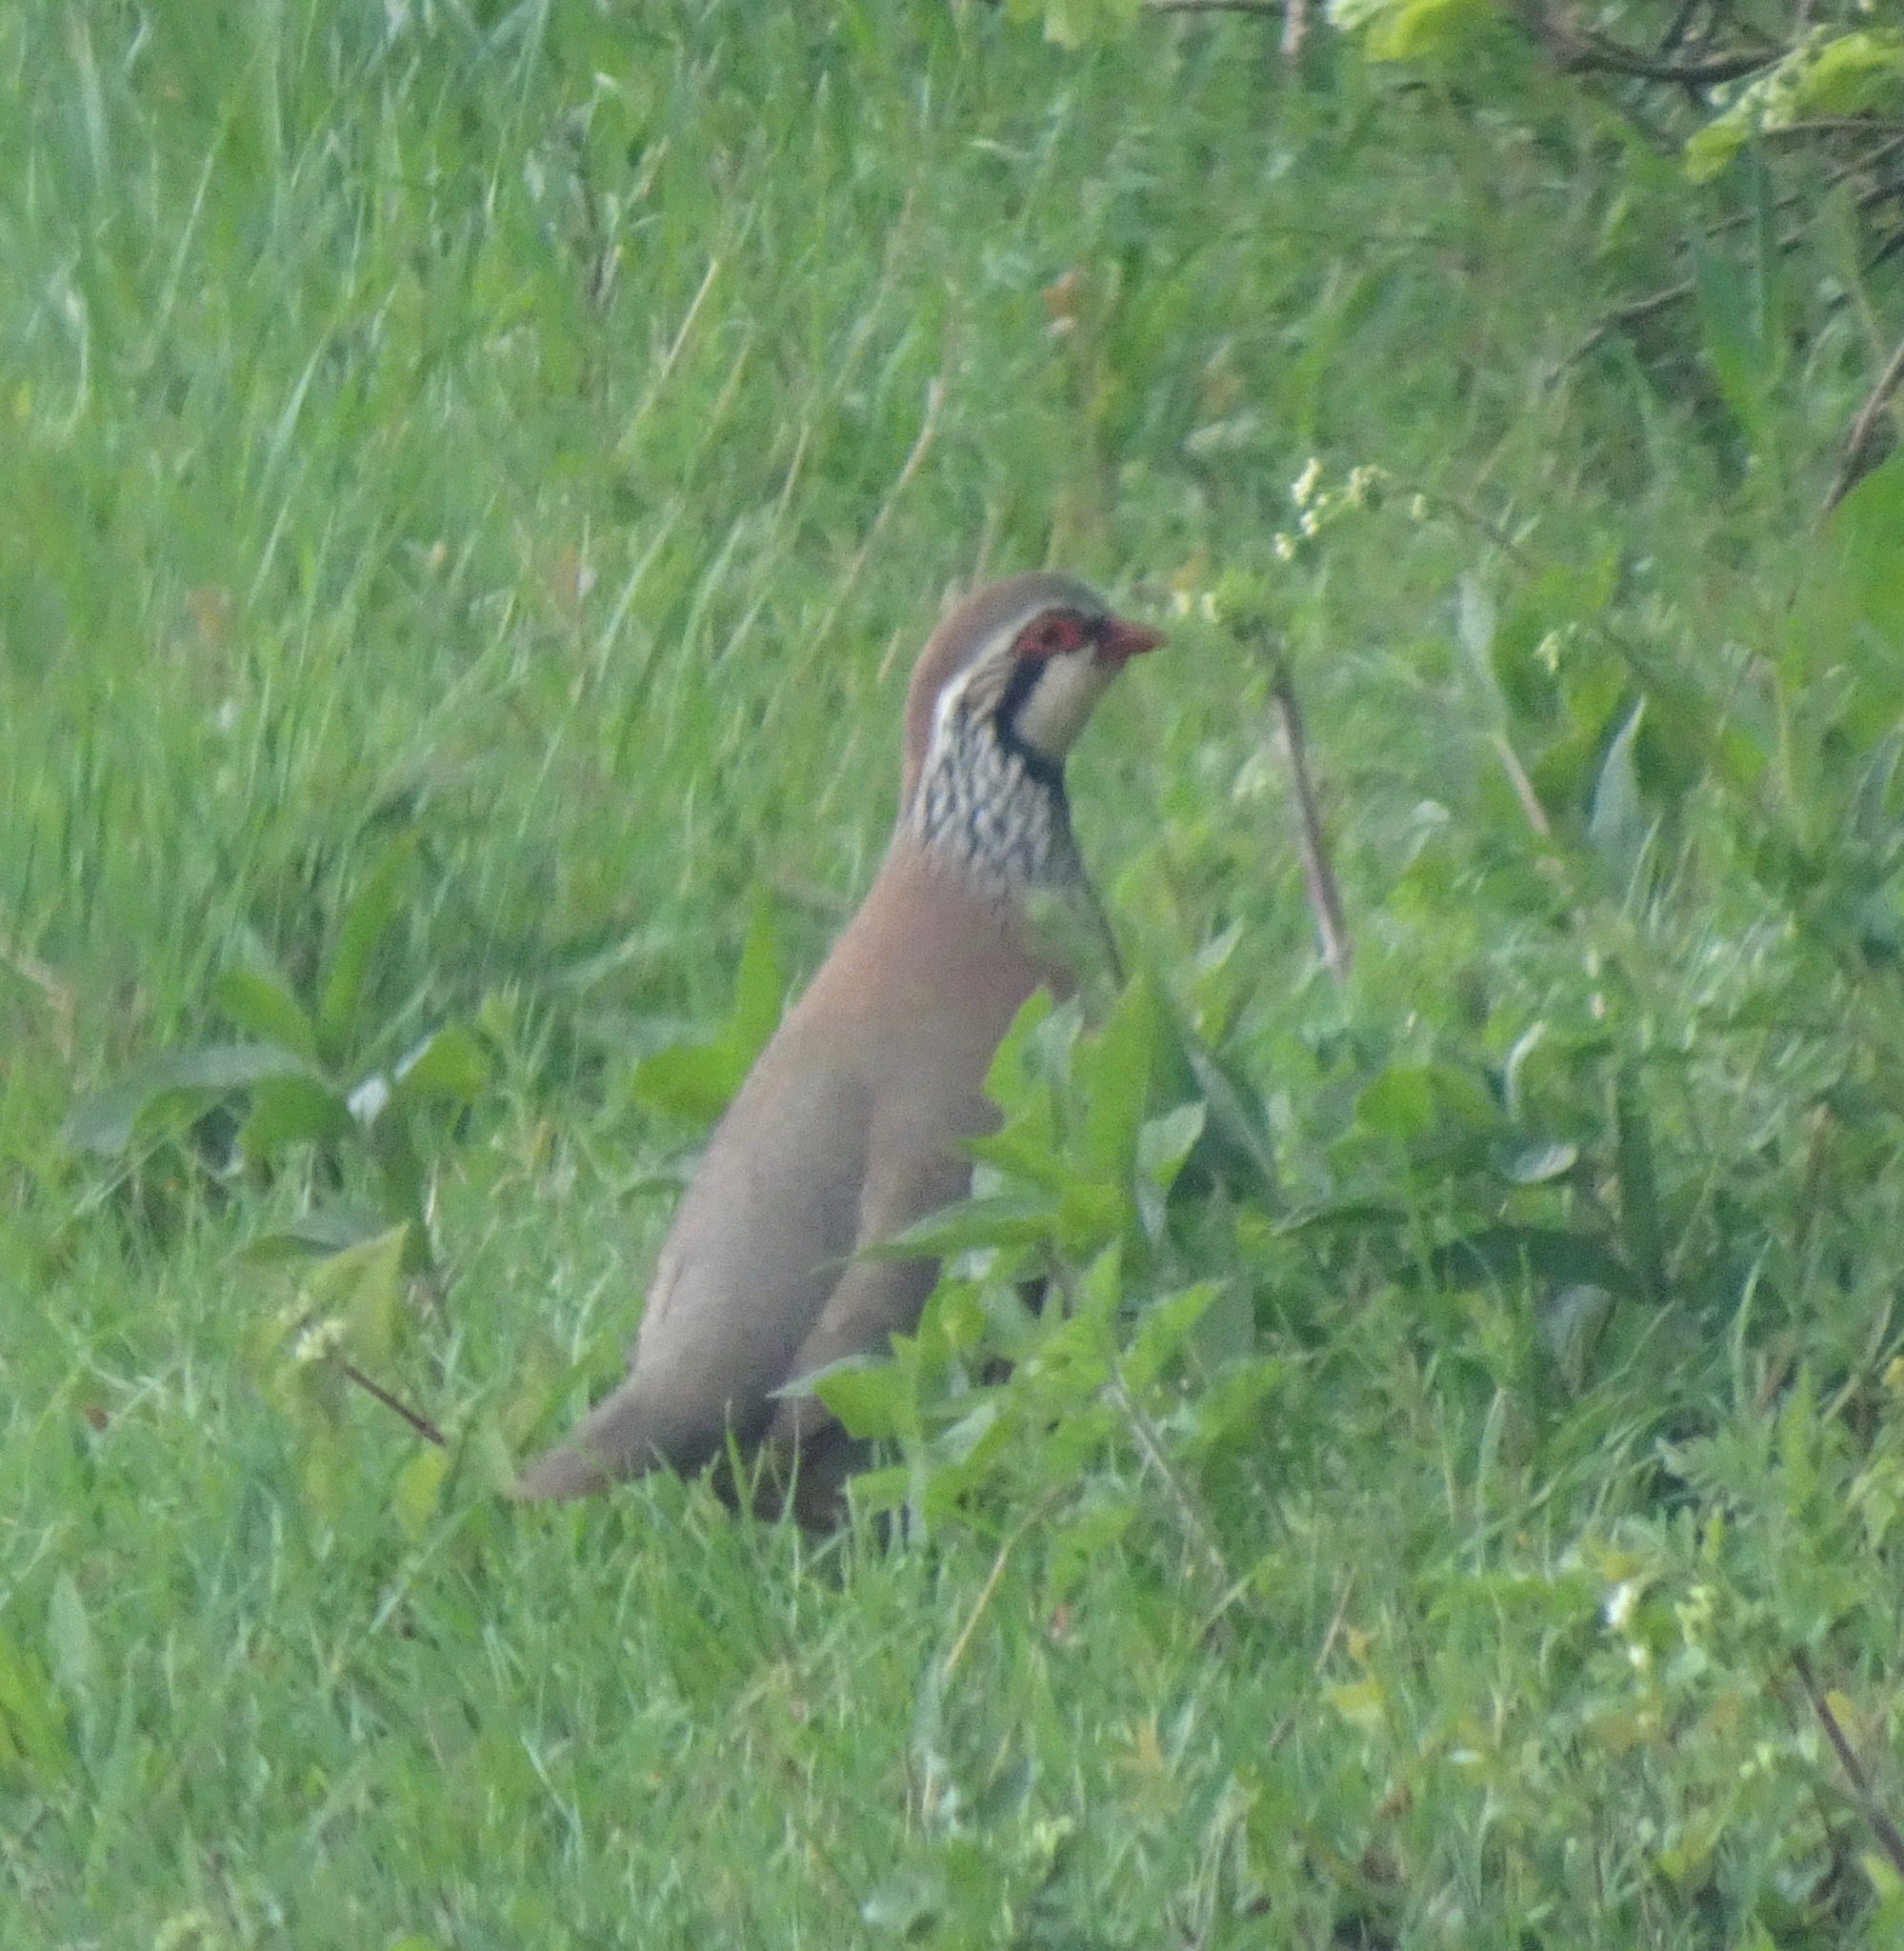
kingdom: Animalia
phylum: Chordata
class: Aves
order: Galliformes
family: Phasianidae
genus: Alectoris
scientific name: Alectoris rufa
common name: Red-legged partridge
